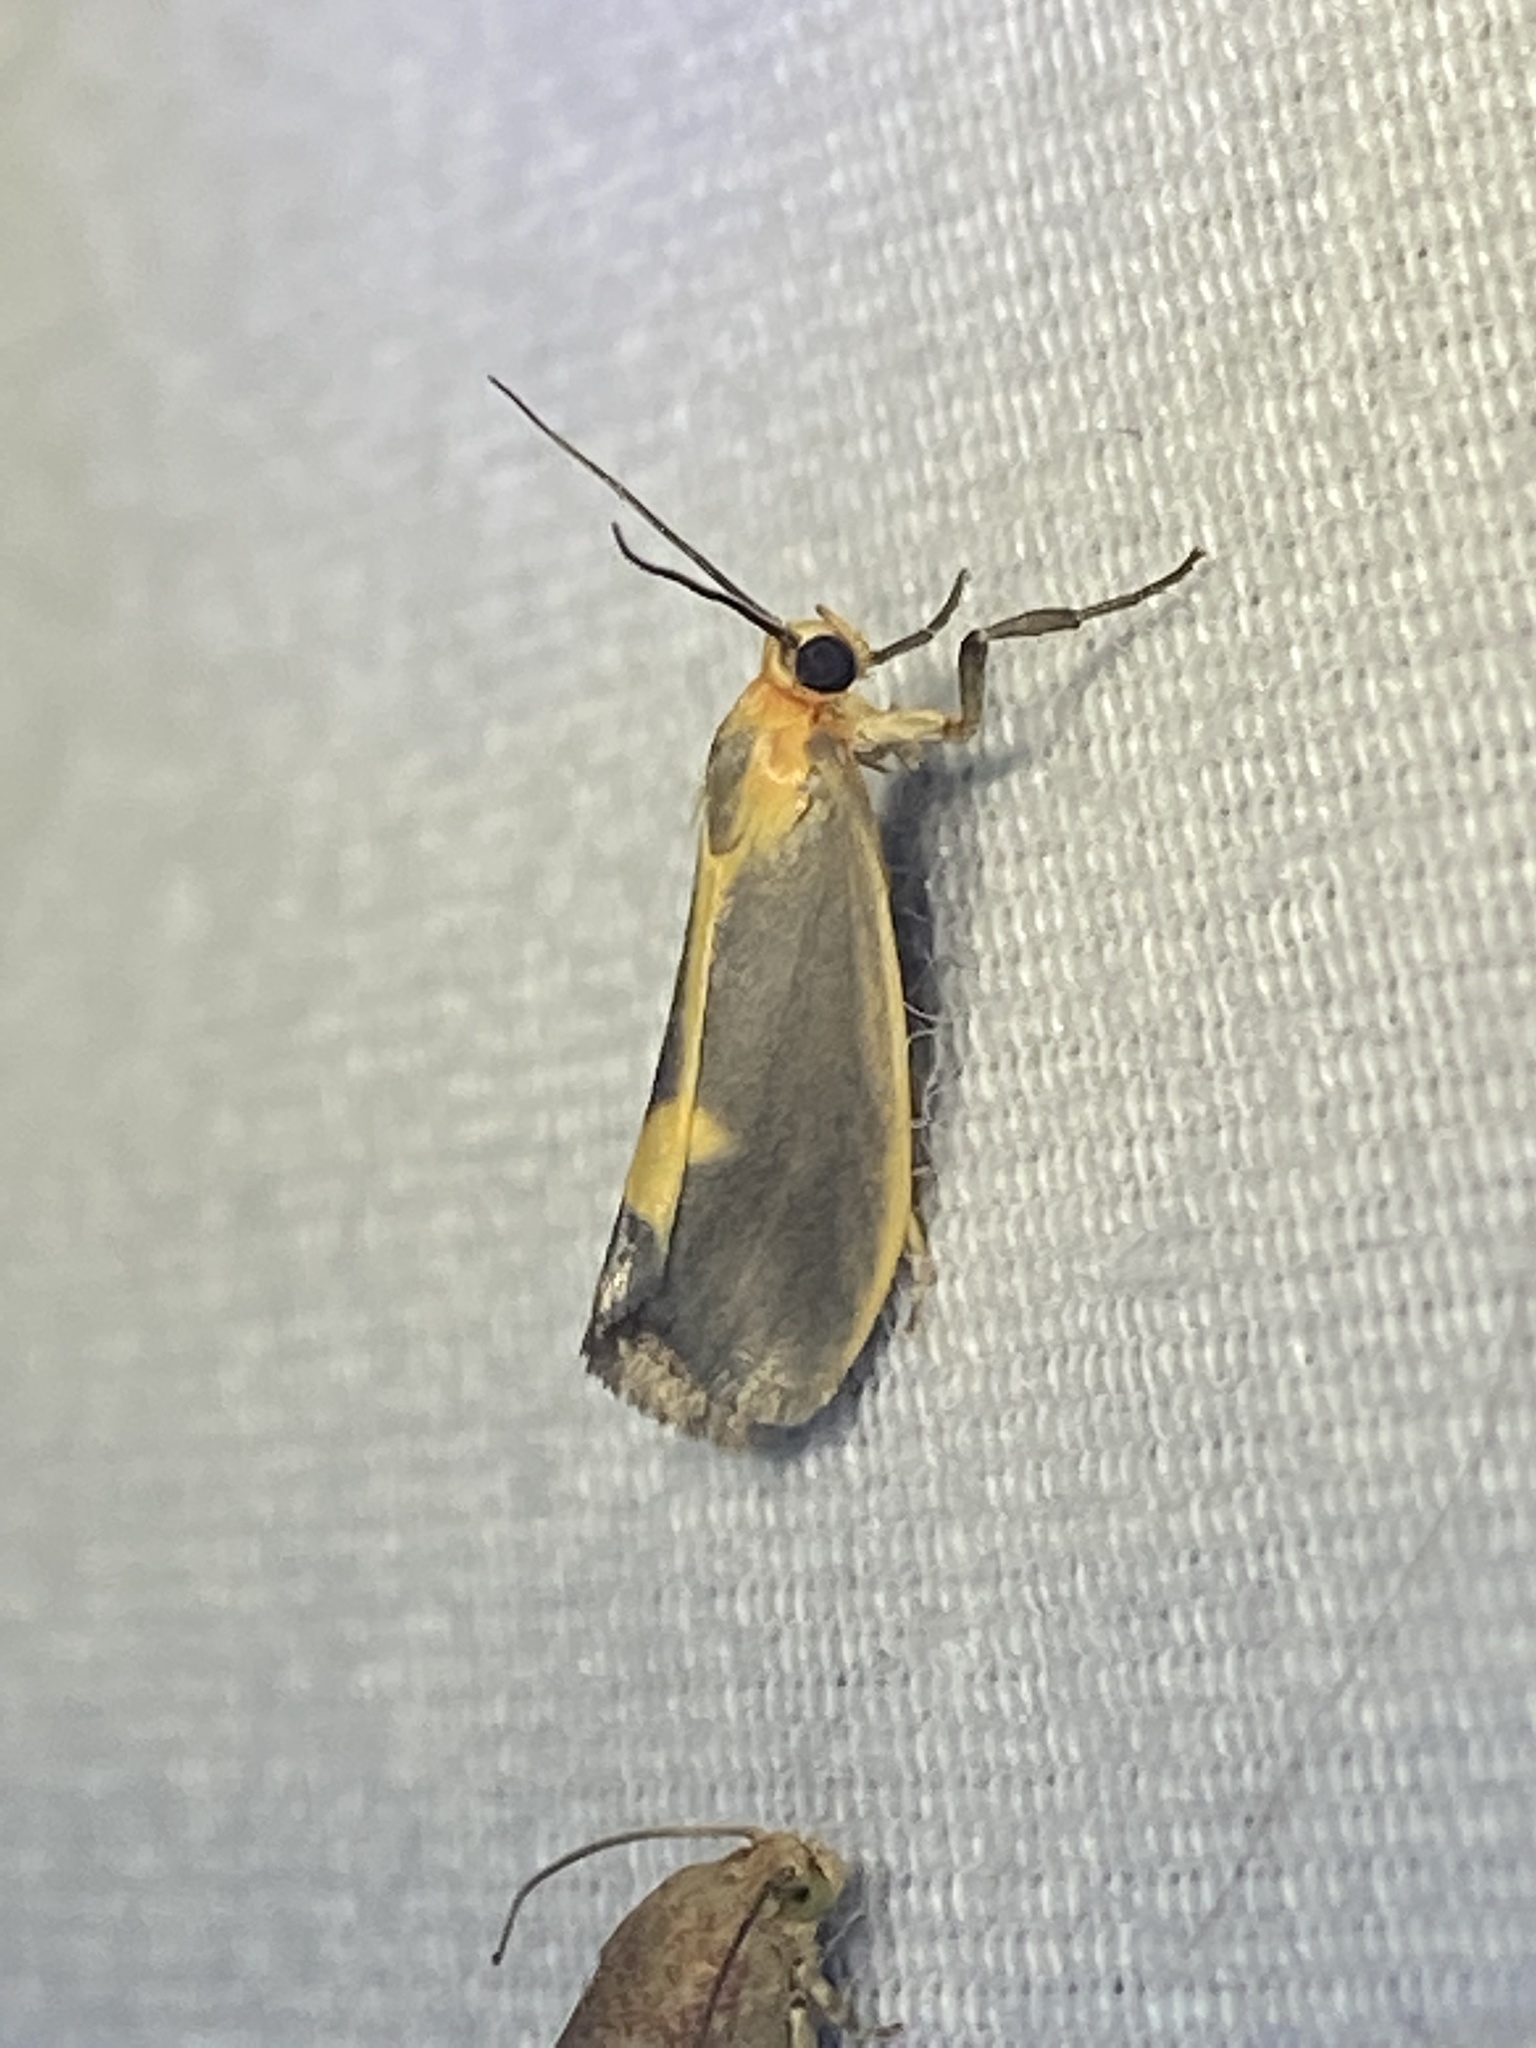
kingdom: Animalia
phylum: Arthropoda
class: Insecta
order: Lepidoptera
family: Erebidae
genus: Cisthene
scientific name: Cisthene plumbea
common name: Lead colored lichen moth
